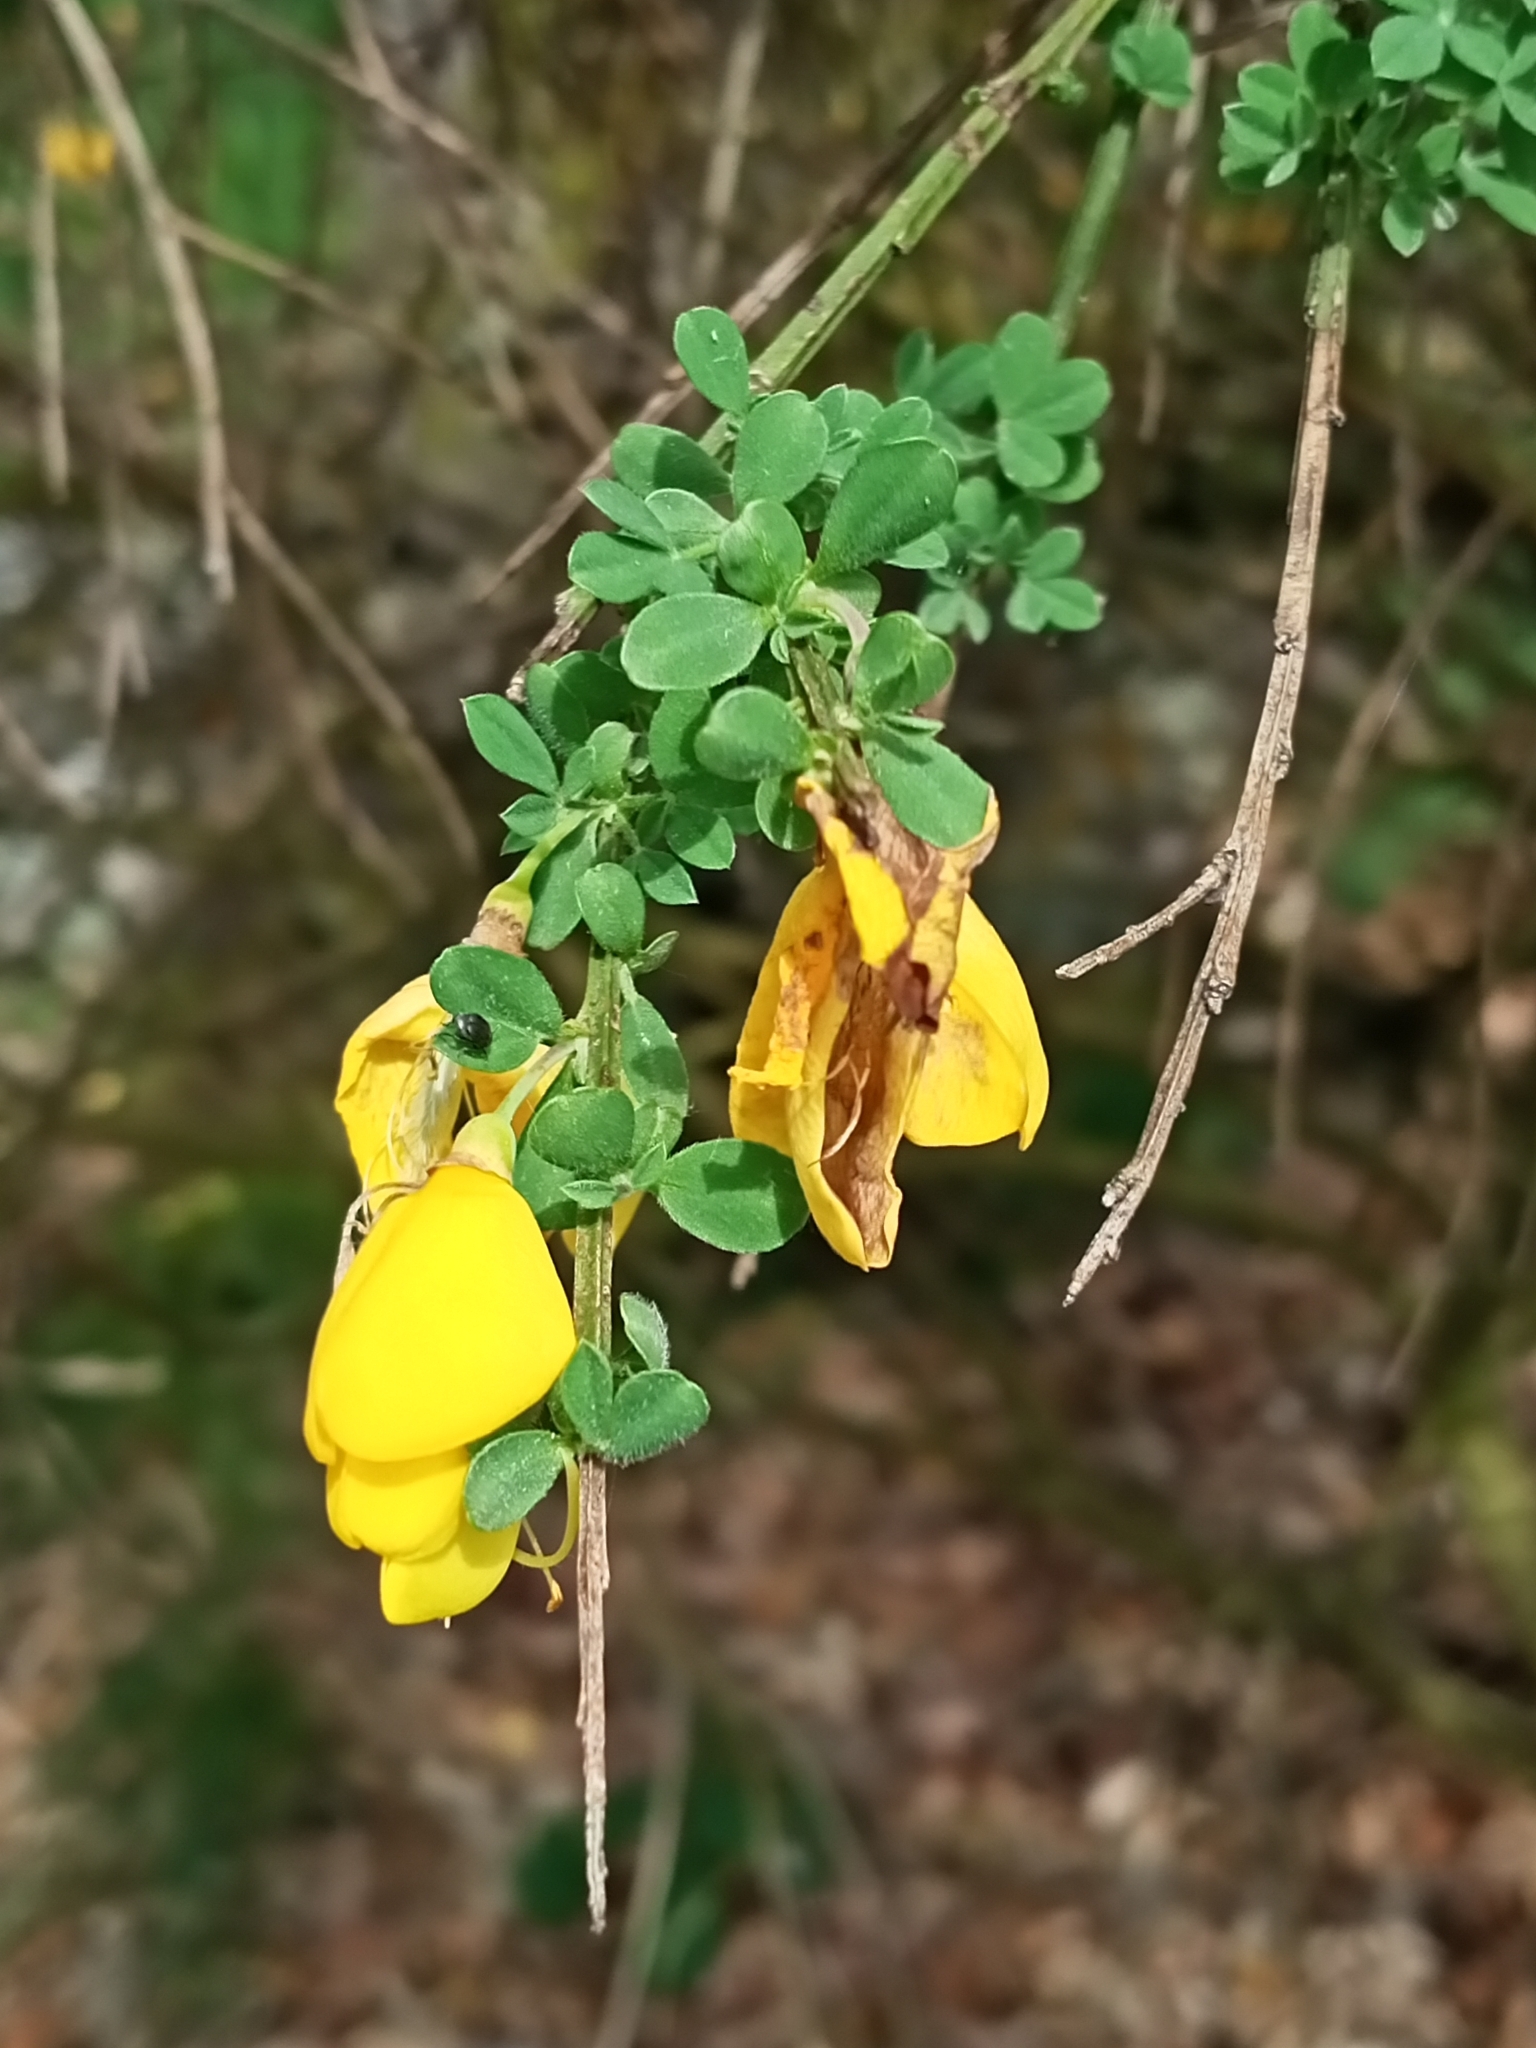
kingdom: Plantae
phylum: Tracheophyta
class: Magnoliopsida
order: Fabales
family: Fabaceae
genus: Cytisus
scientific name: Cytisus scoparius
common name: Scotch broom
